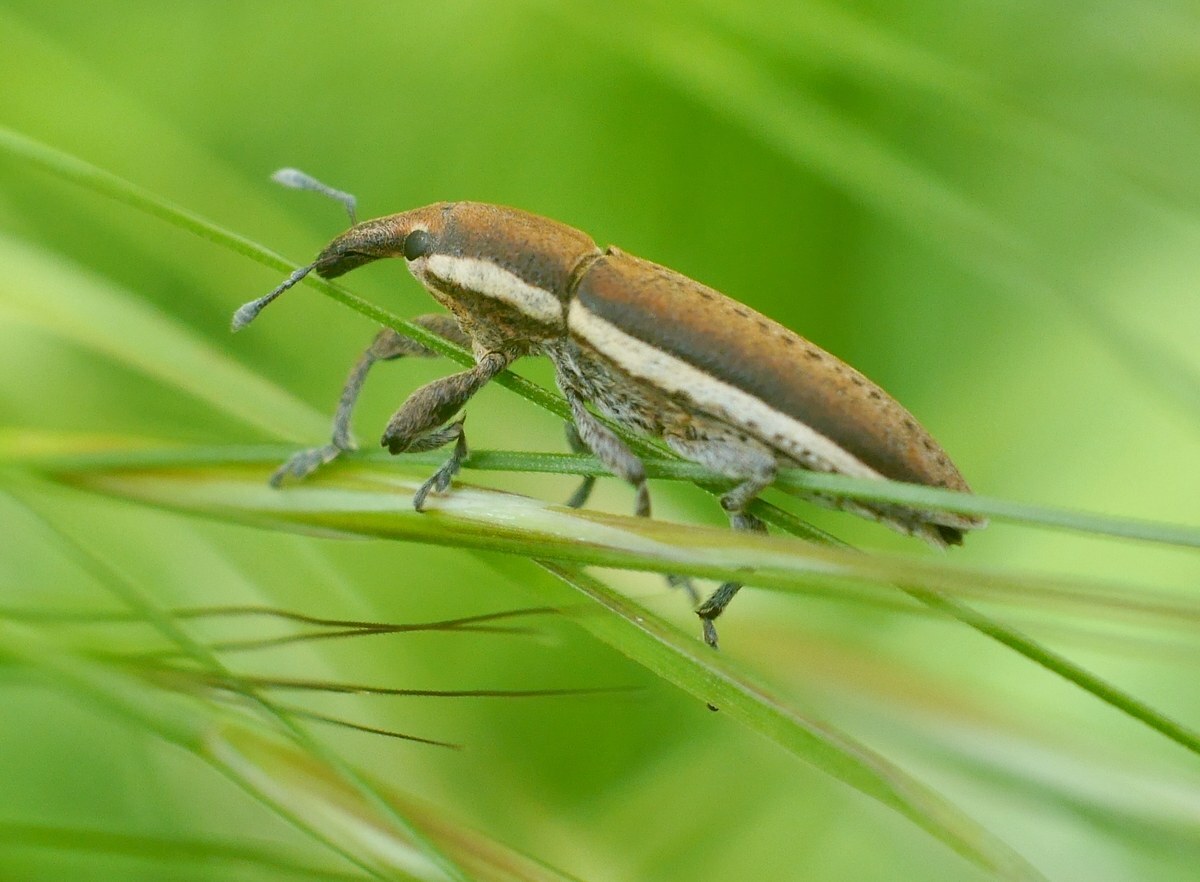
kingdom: Animalia
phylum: Arthropoda
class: Insecta
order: Coleoptera
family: Curculionidae
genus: Lixus
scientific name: Lixus albomarginatus
